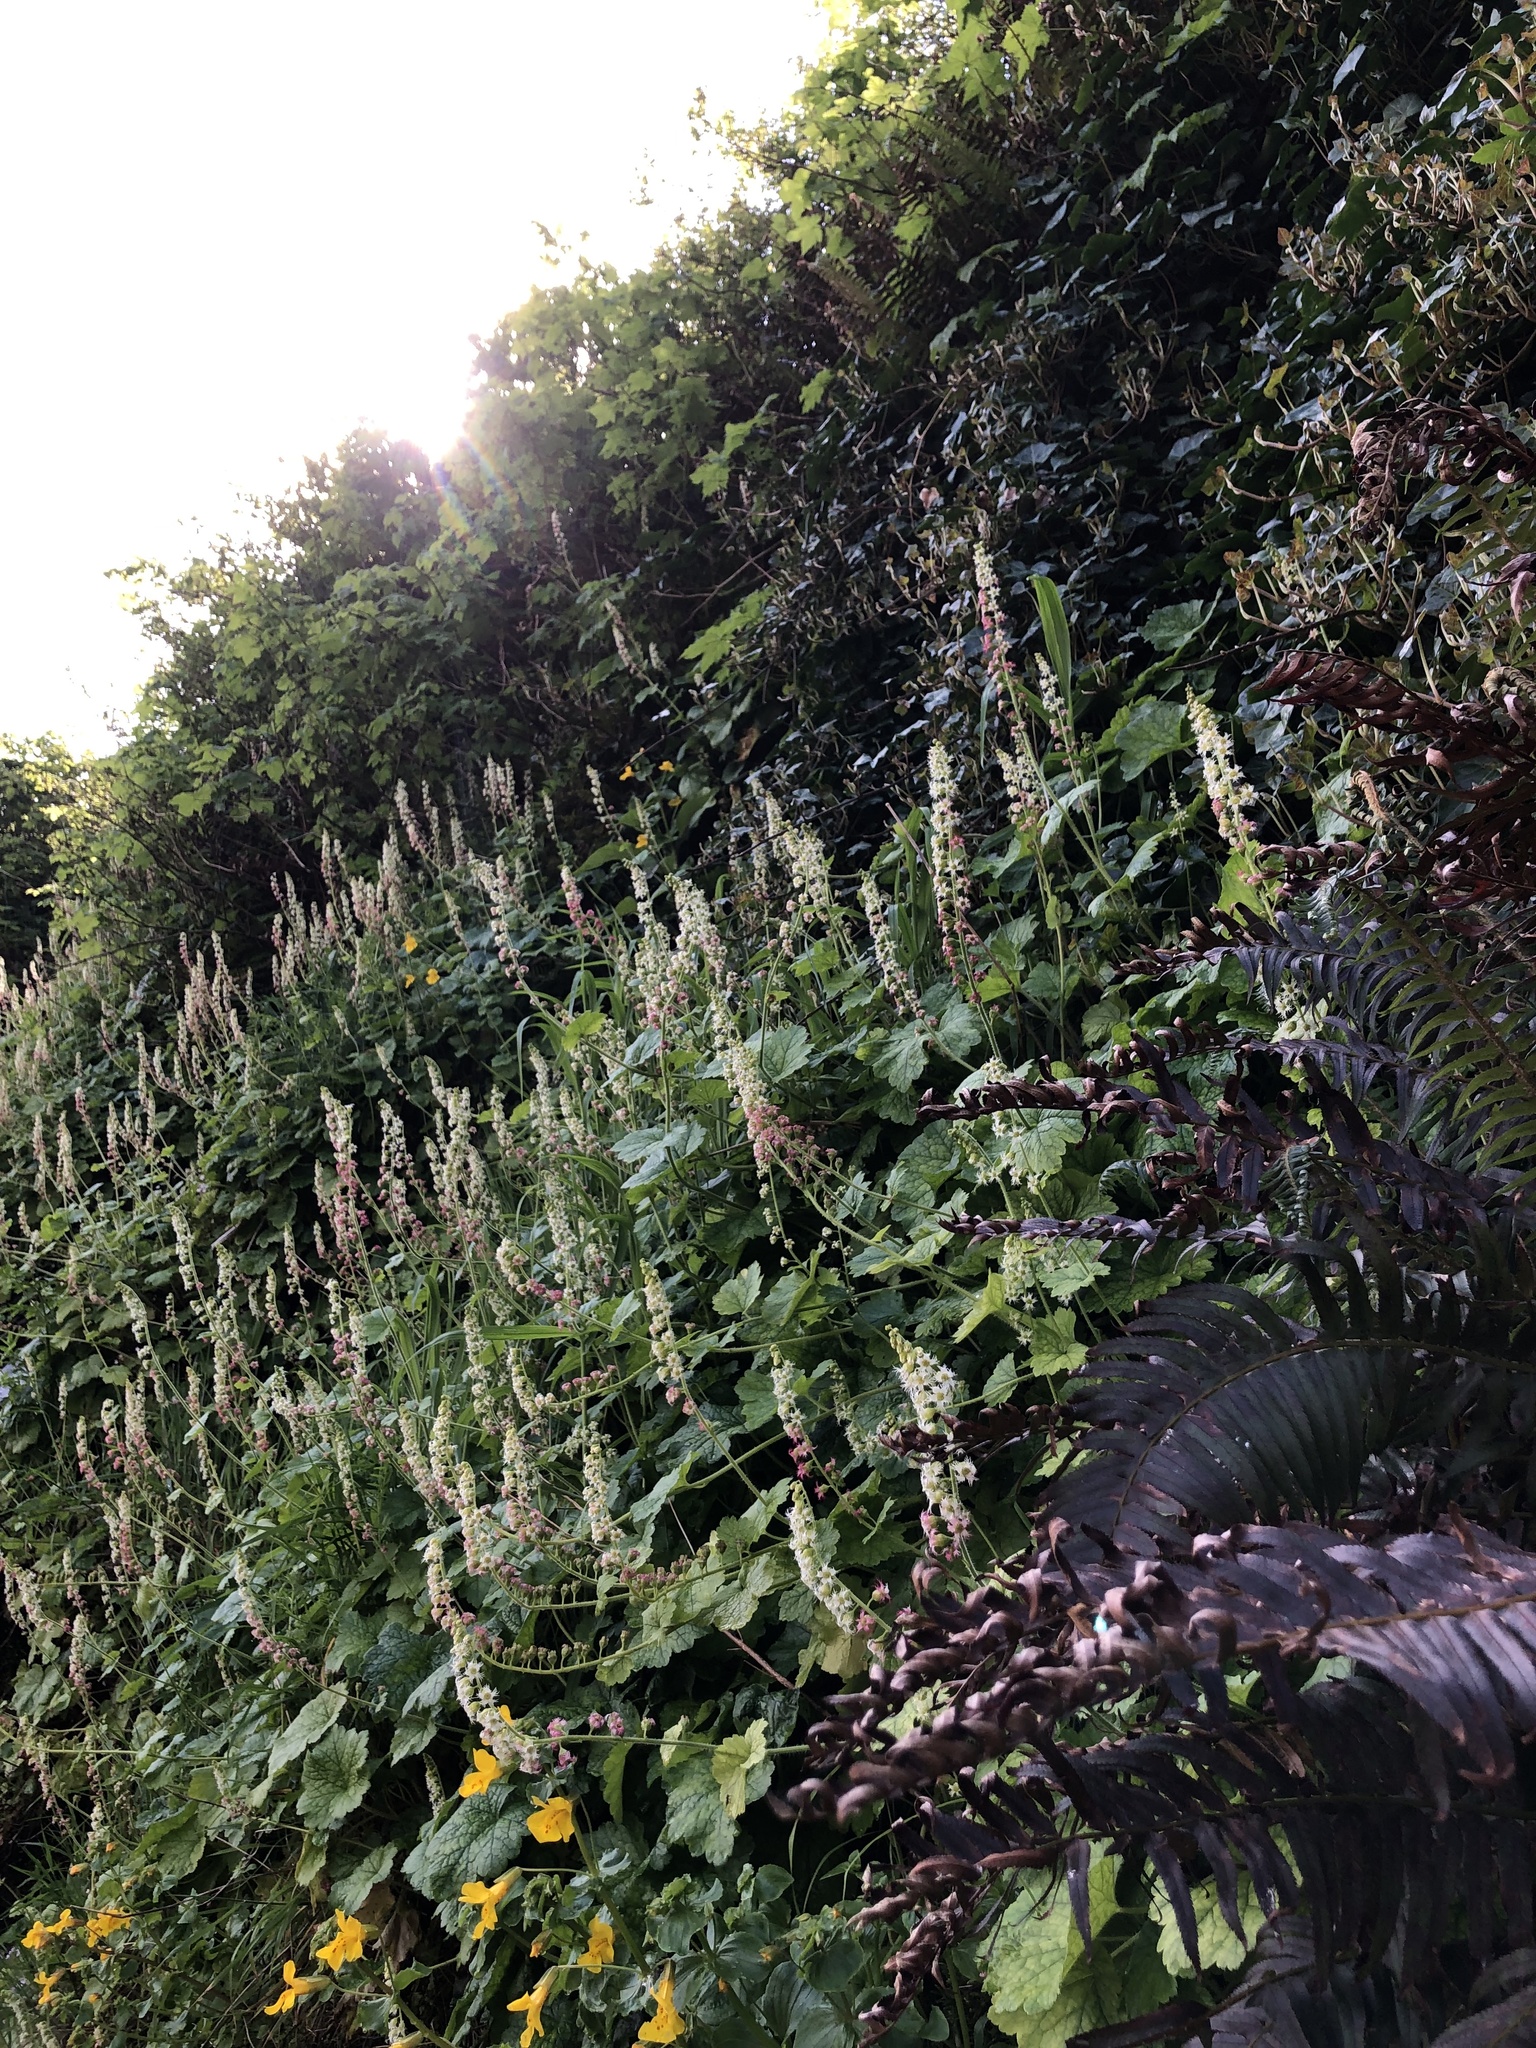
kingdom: Plantae
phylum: Tracheophyta
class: Magnoliopsida
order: Saxifragales
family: Saxifragaceae
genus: Tellima
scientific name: Tellima grandiflora
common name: Fringecups
